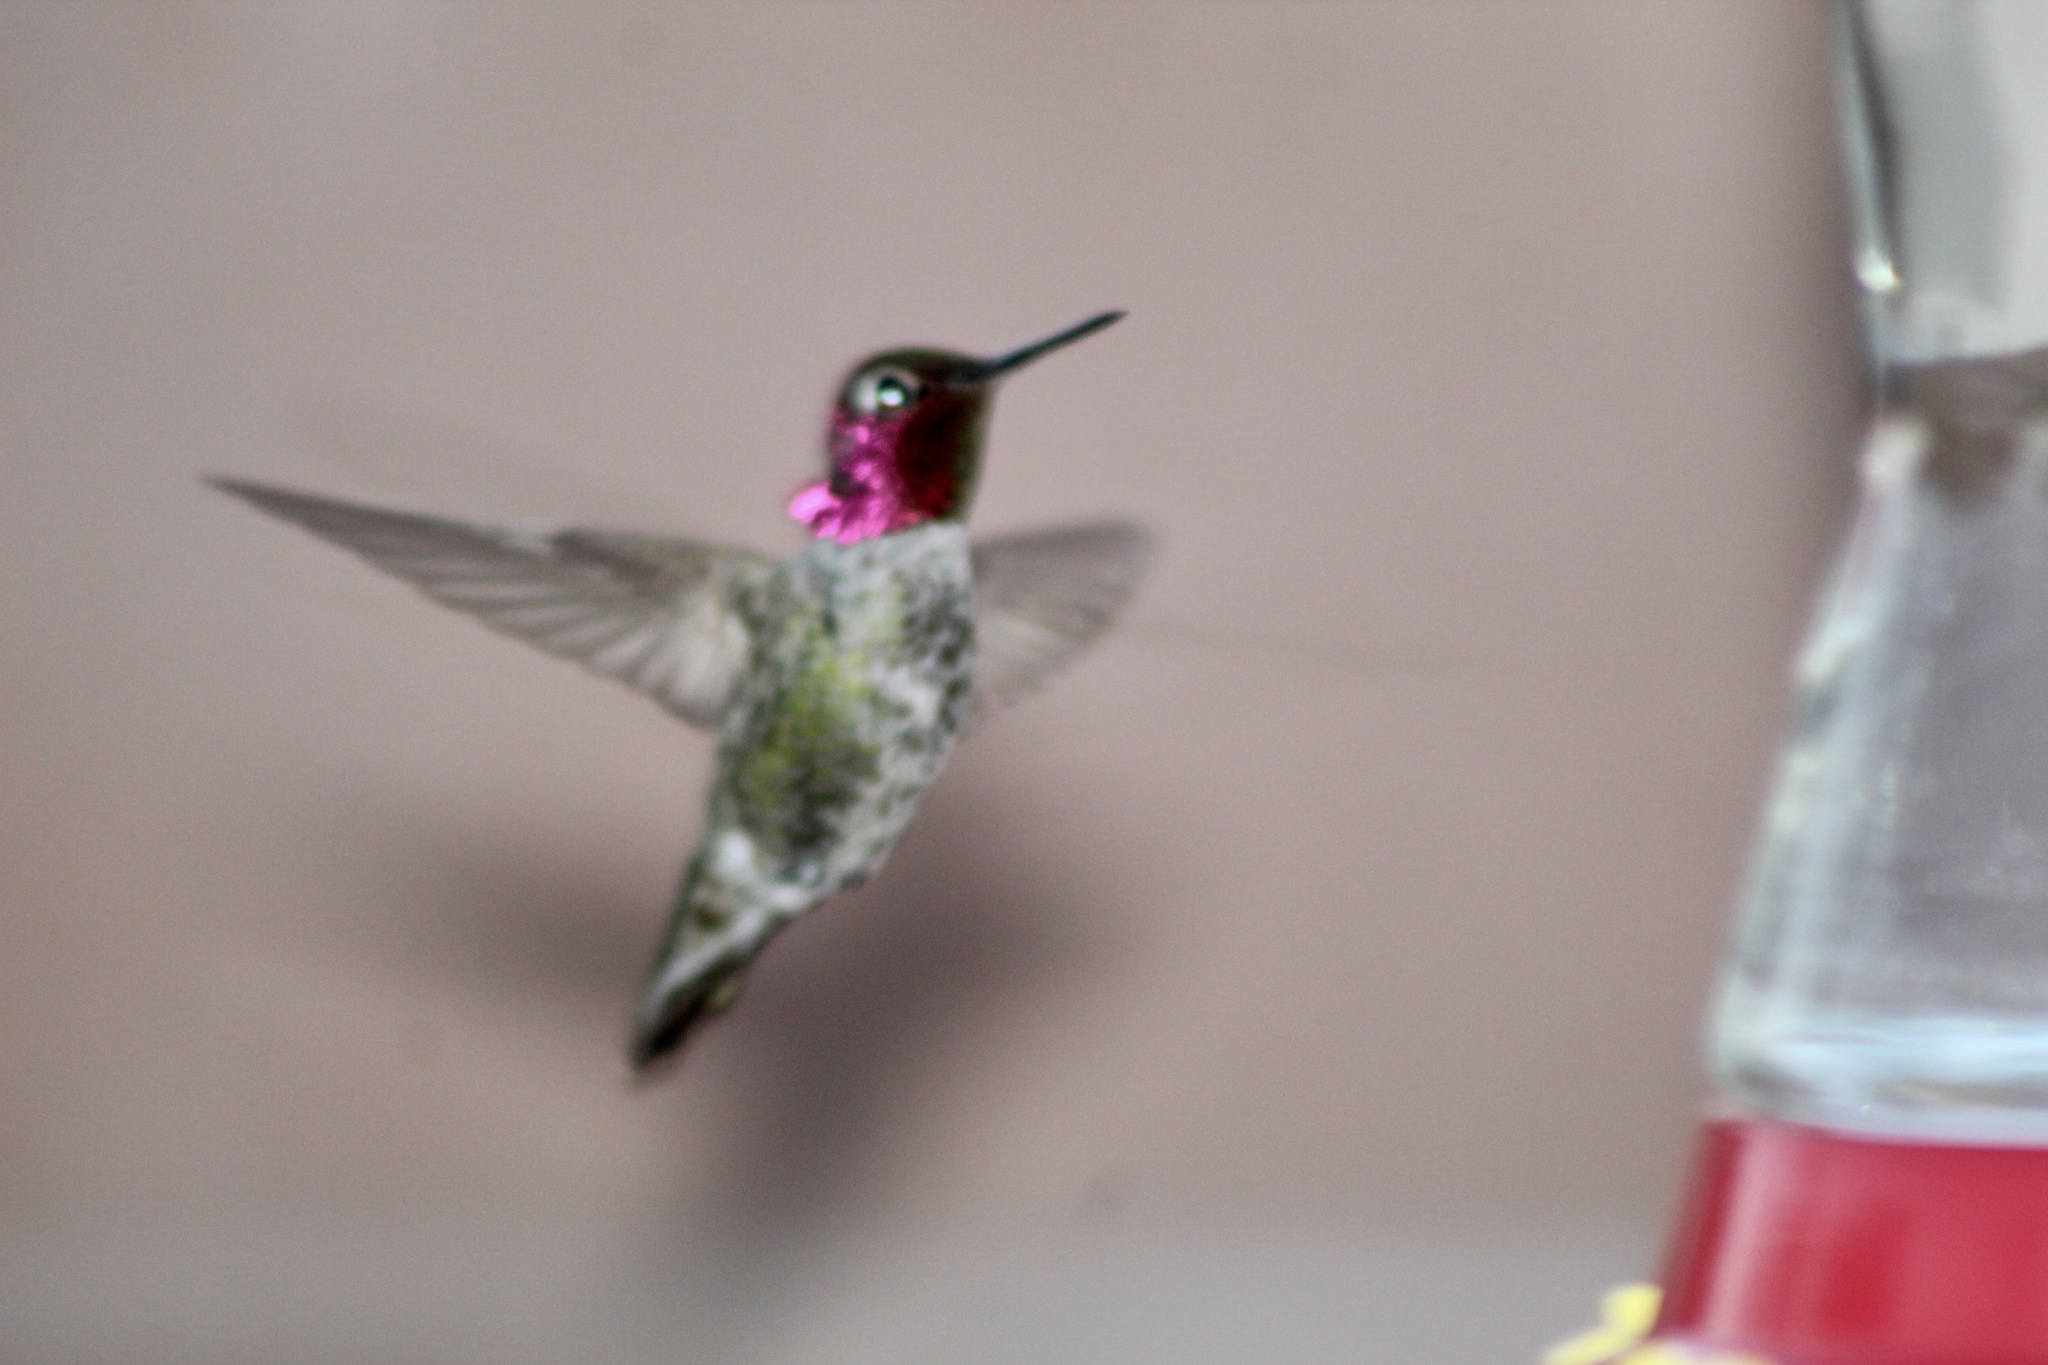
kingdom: Animalia
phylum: Chordata
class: Aves
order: Apodiformes
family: Trochilidae
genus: Calypte
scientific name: Calypte anna
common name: Anna's hummingbird
